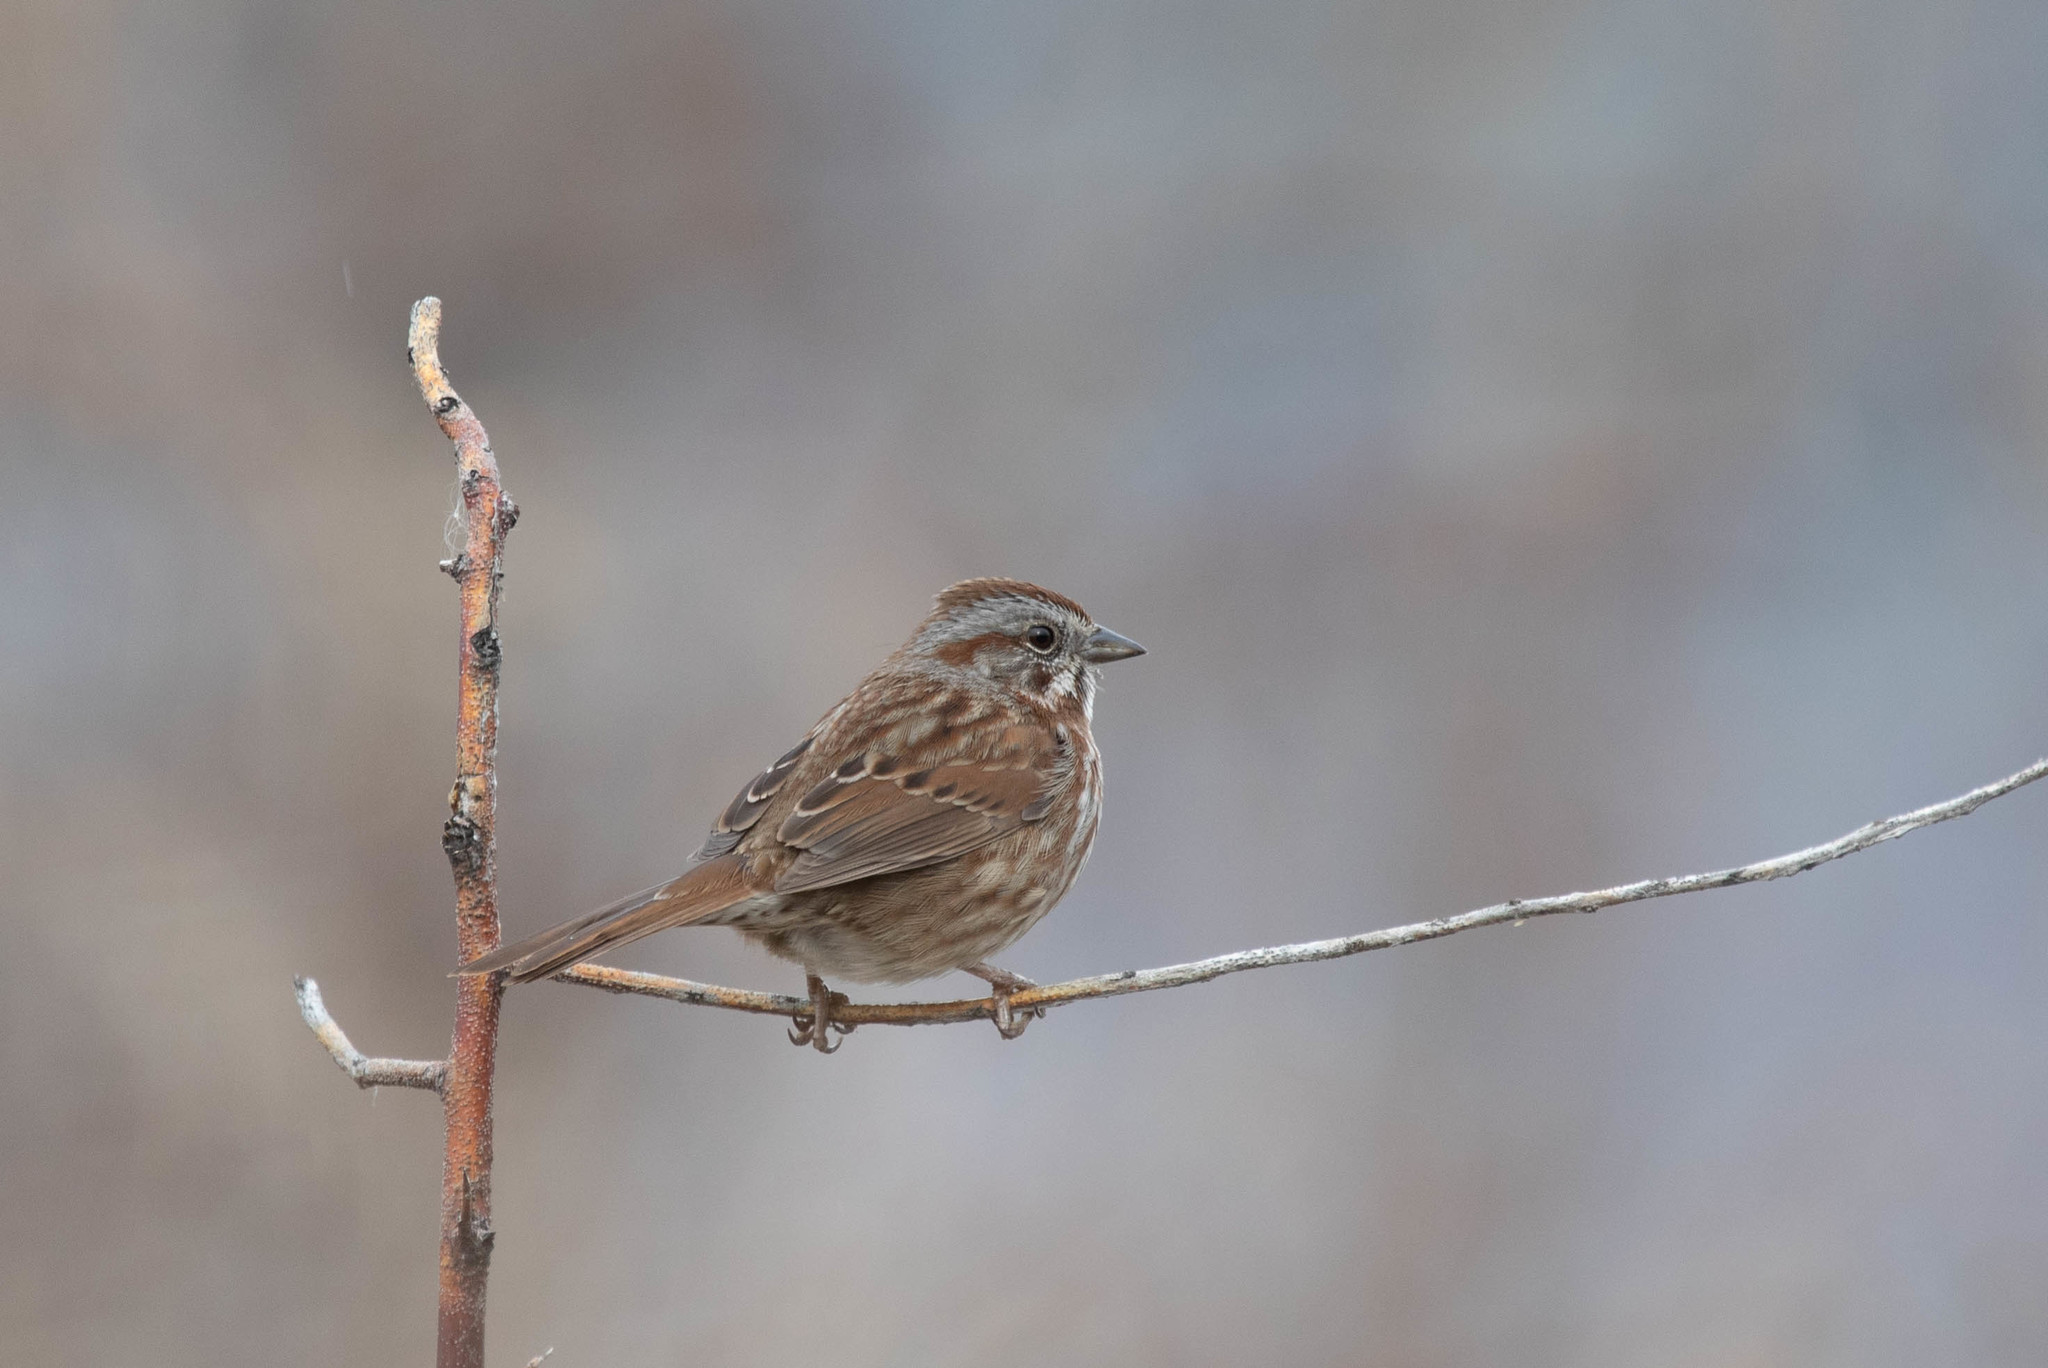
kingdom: Animalia
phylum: Chordata
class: Aves
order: Passeriformes
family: Passerellidae
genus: Melospiza
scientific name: Melospiza melodia
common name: Song sparrow
